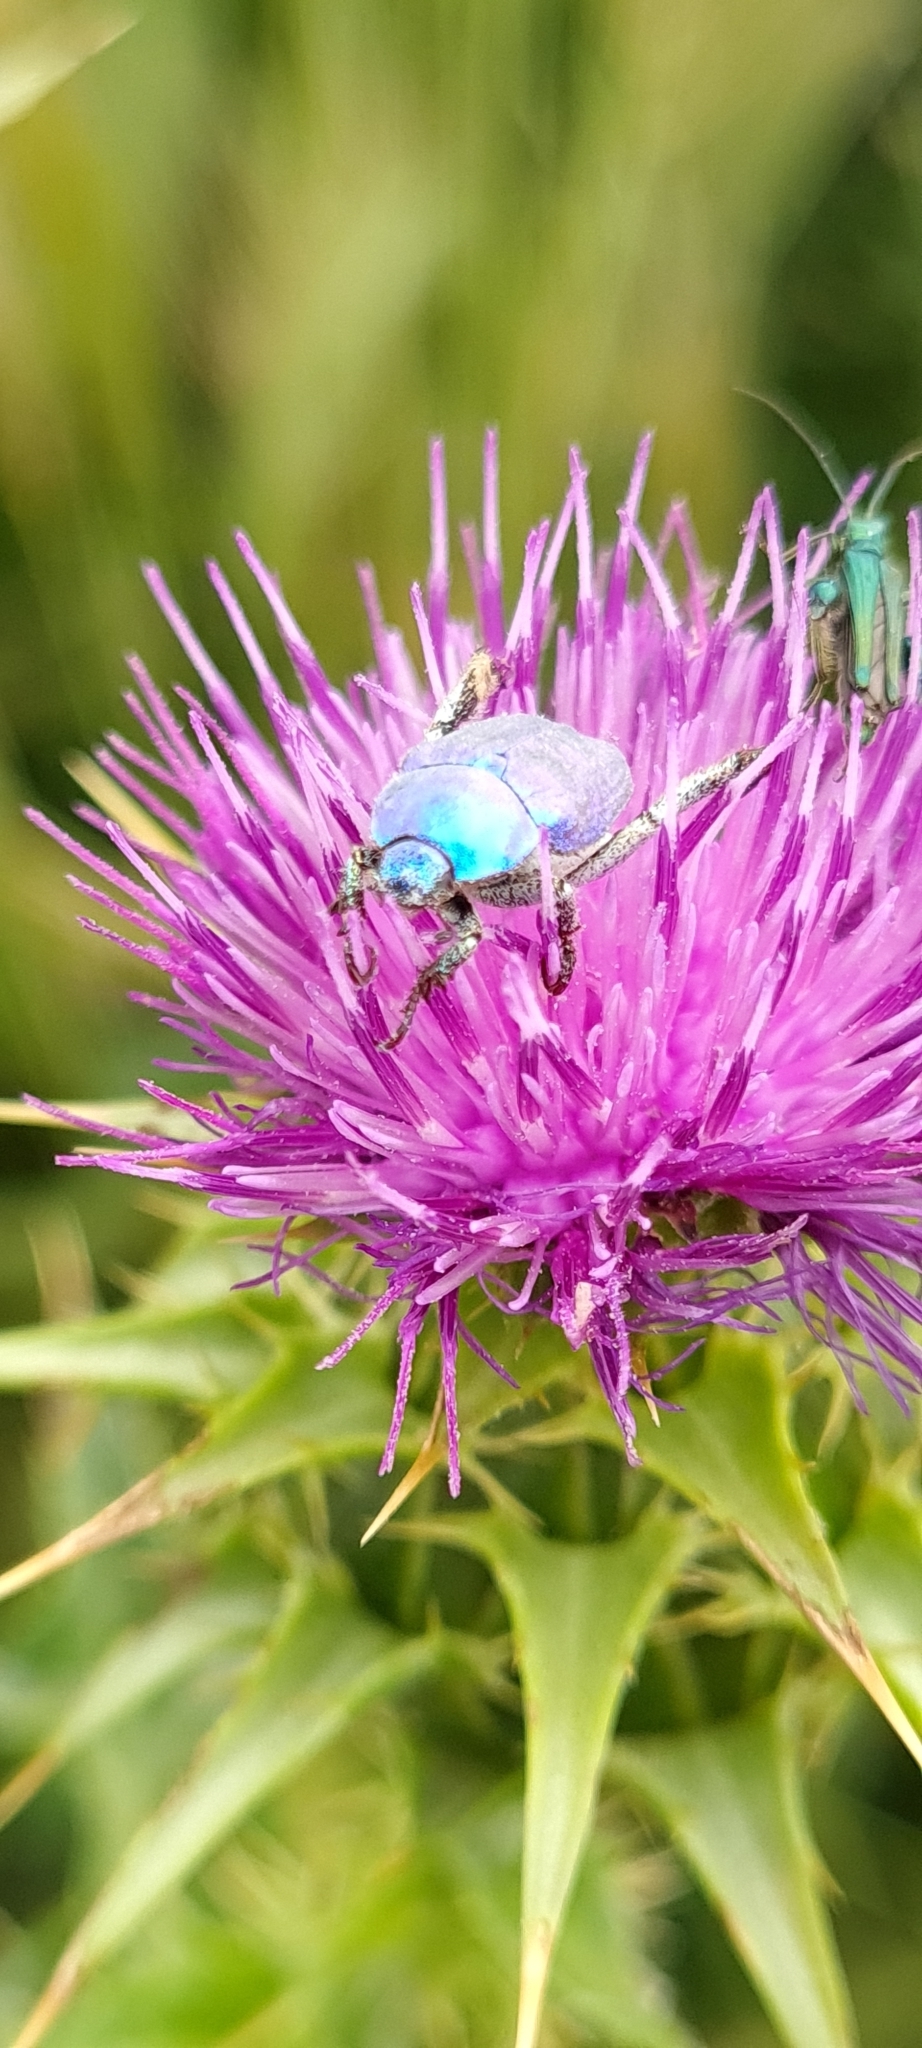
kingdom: Animalia
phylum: Arthropoda
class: Insecta
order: Coleoptera
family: Scarabaeidae
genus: Hoplia
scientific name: Hoplia coerulea
